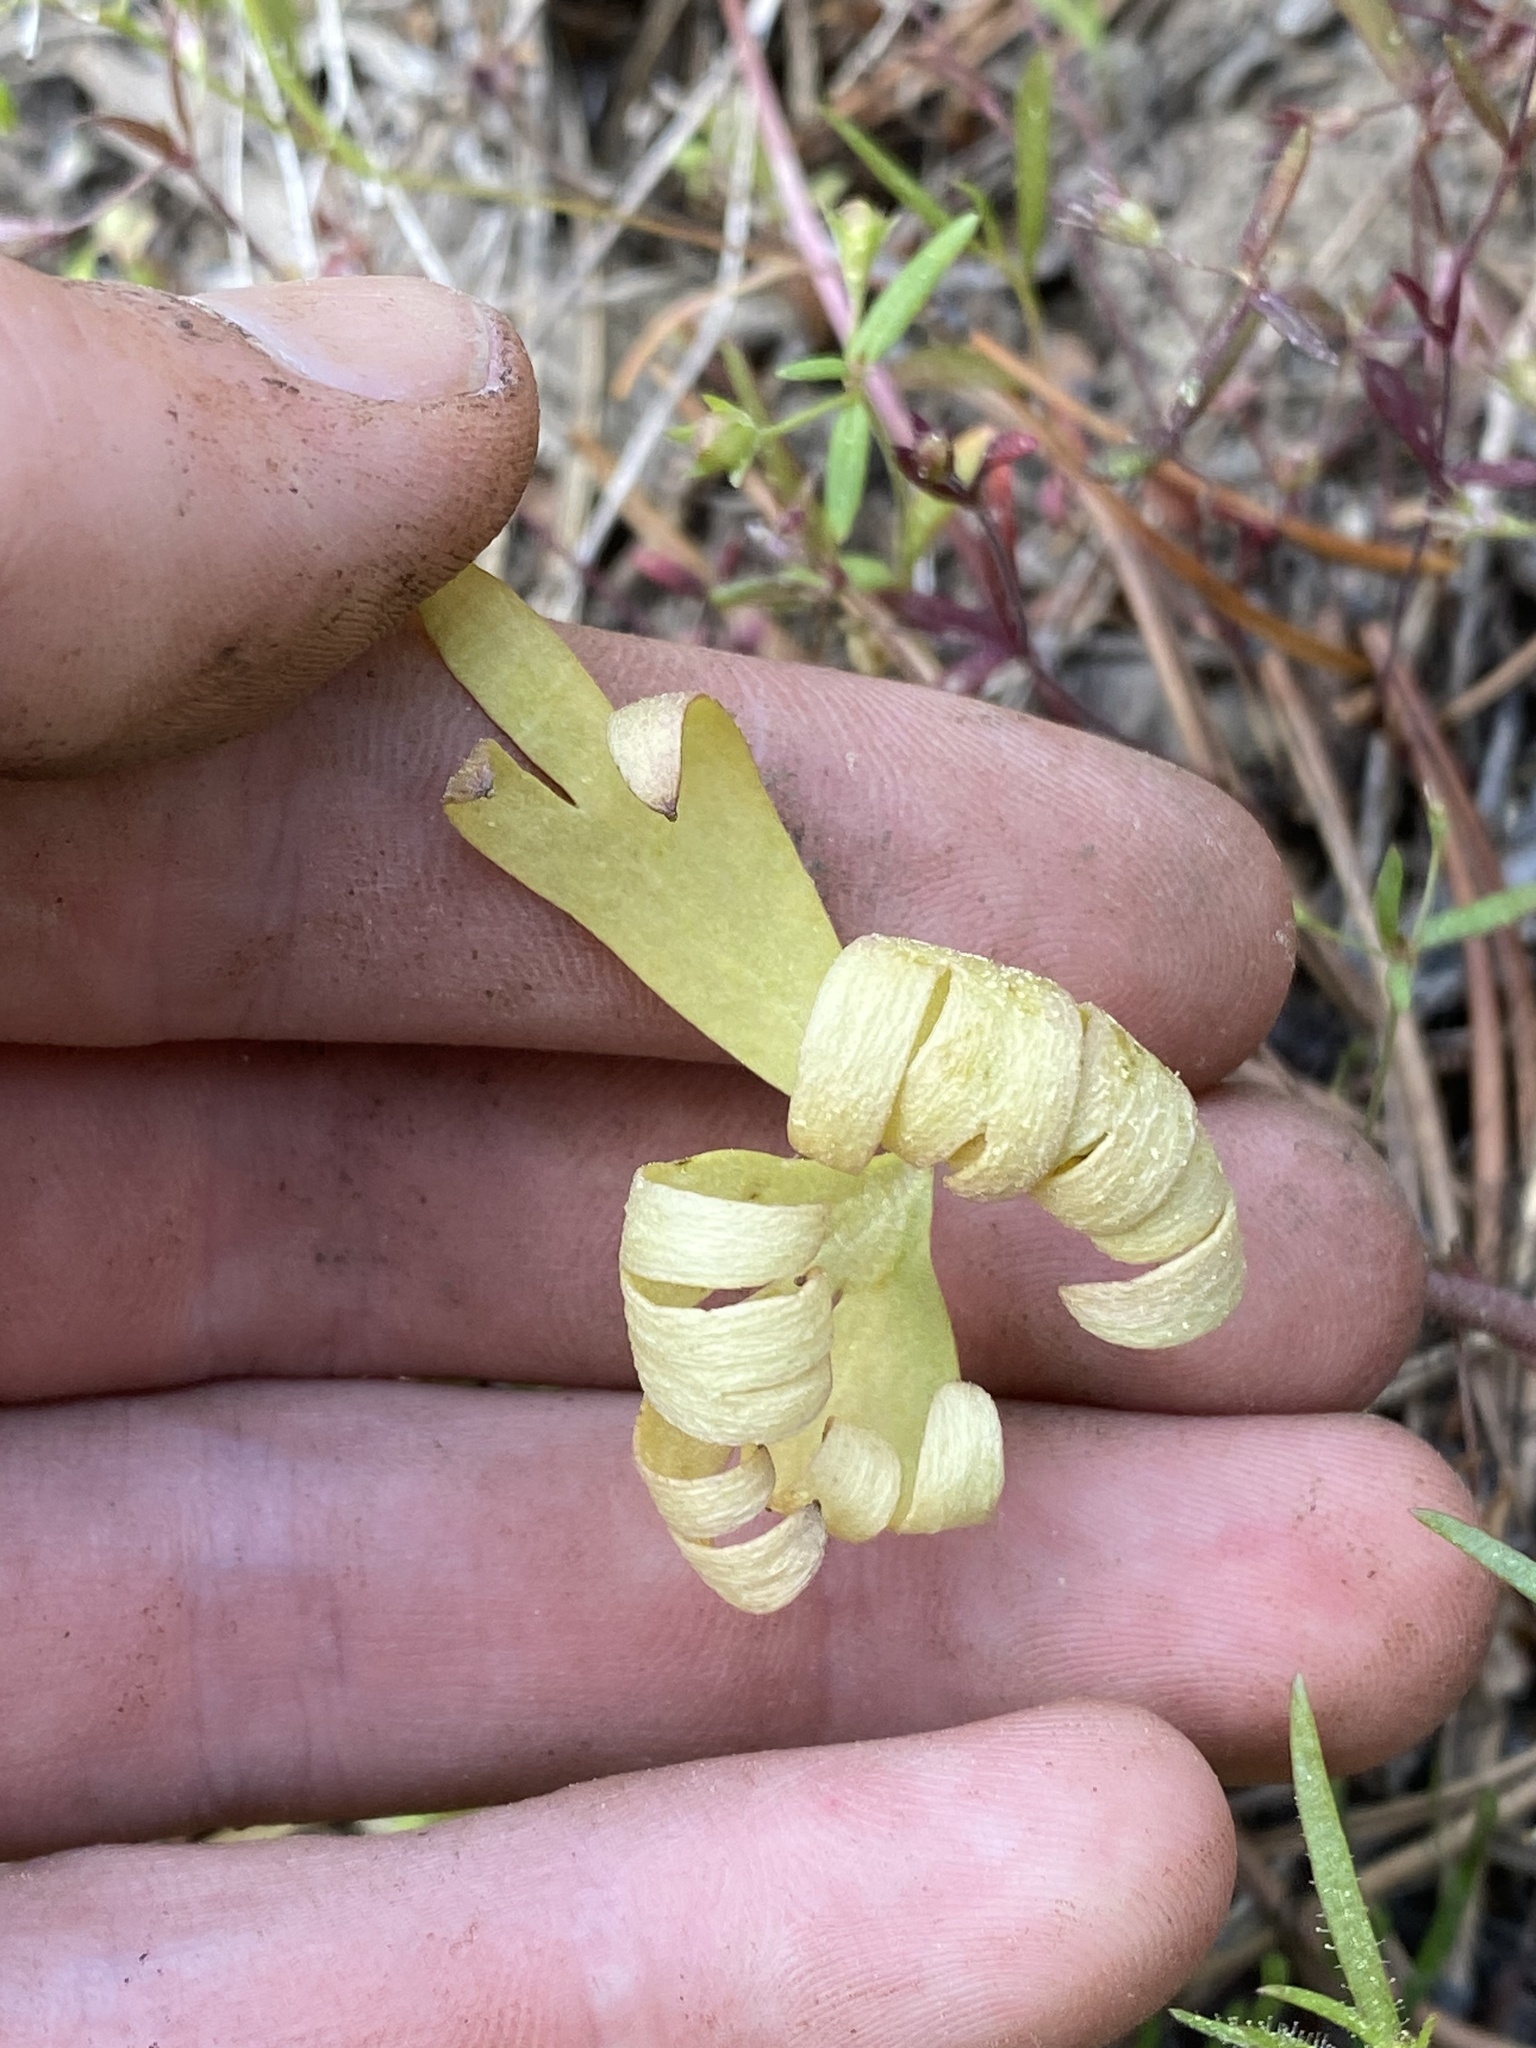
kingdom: Plantae
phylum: Tracheophyta
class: Magnoliopsida
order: Ranunculales
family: Ranunculaceae
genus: Delphinium
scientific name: Delphinium nuttallianum
